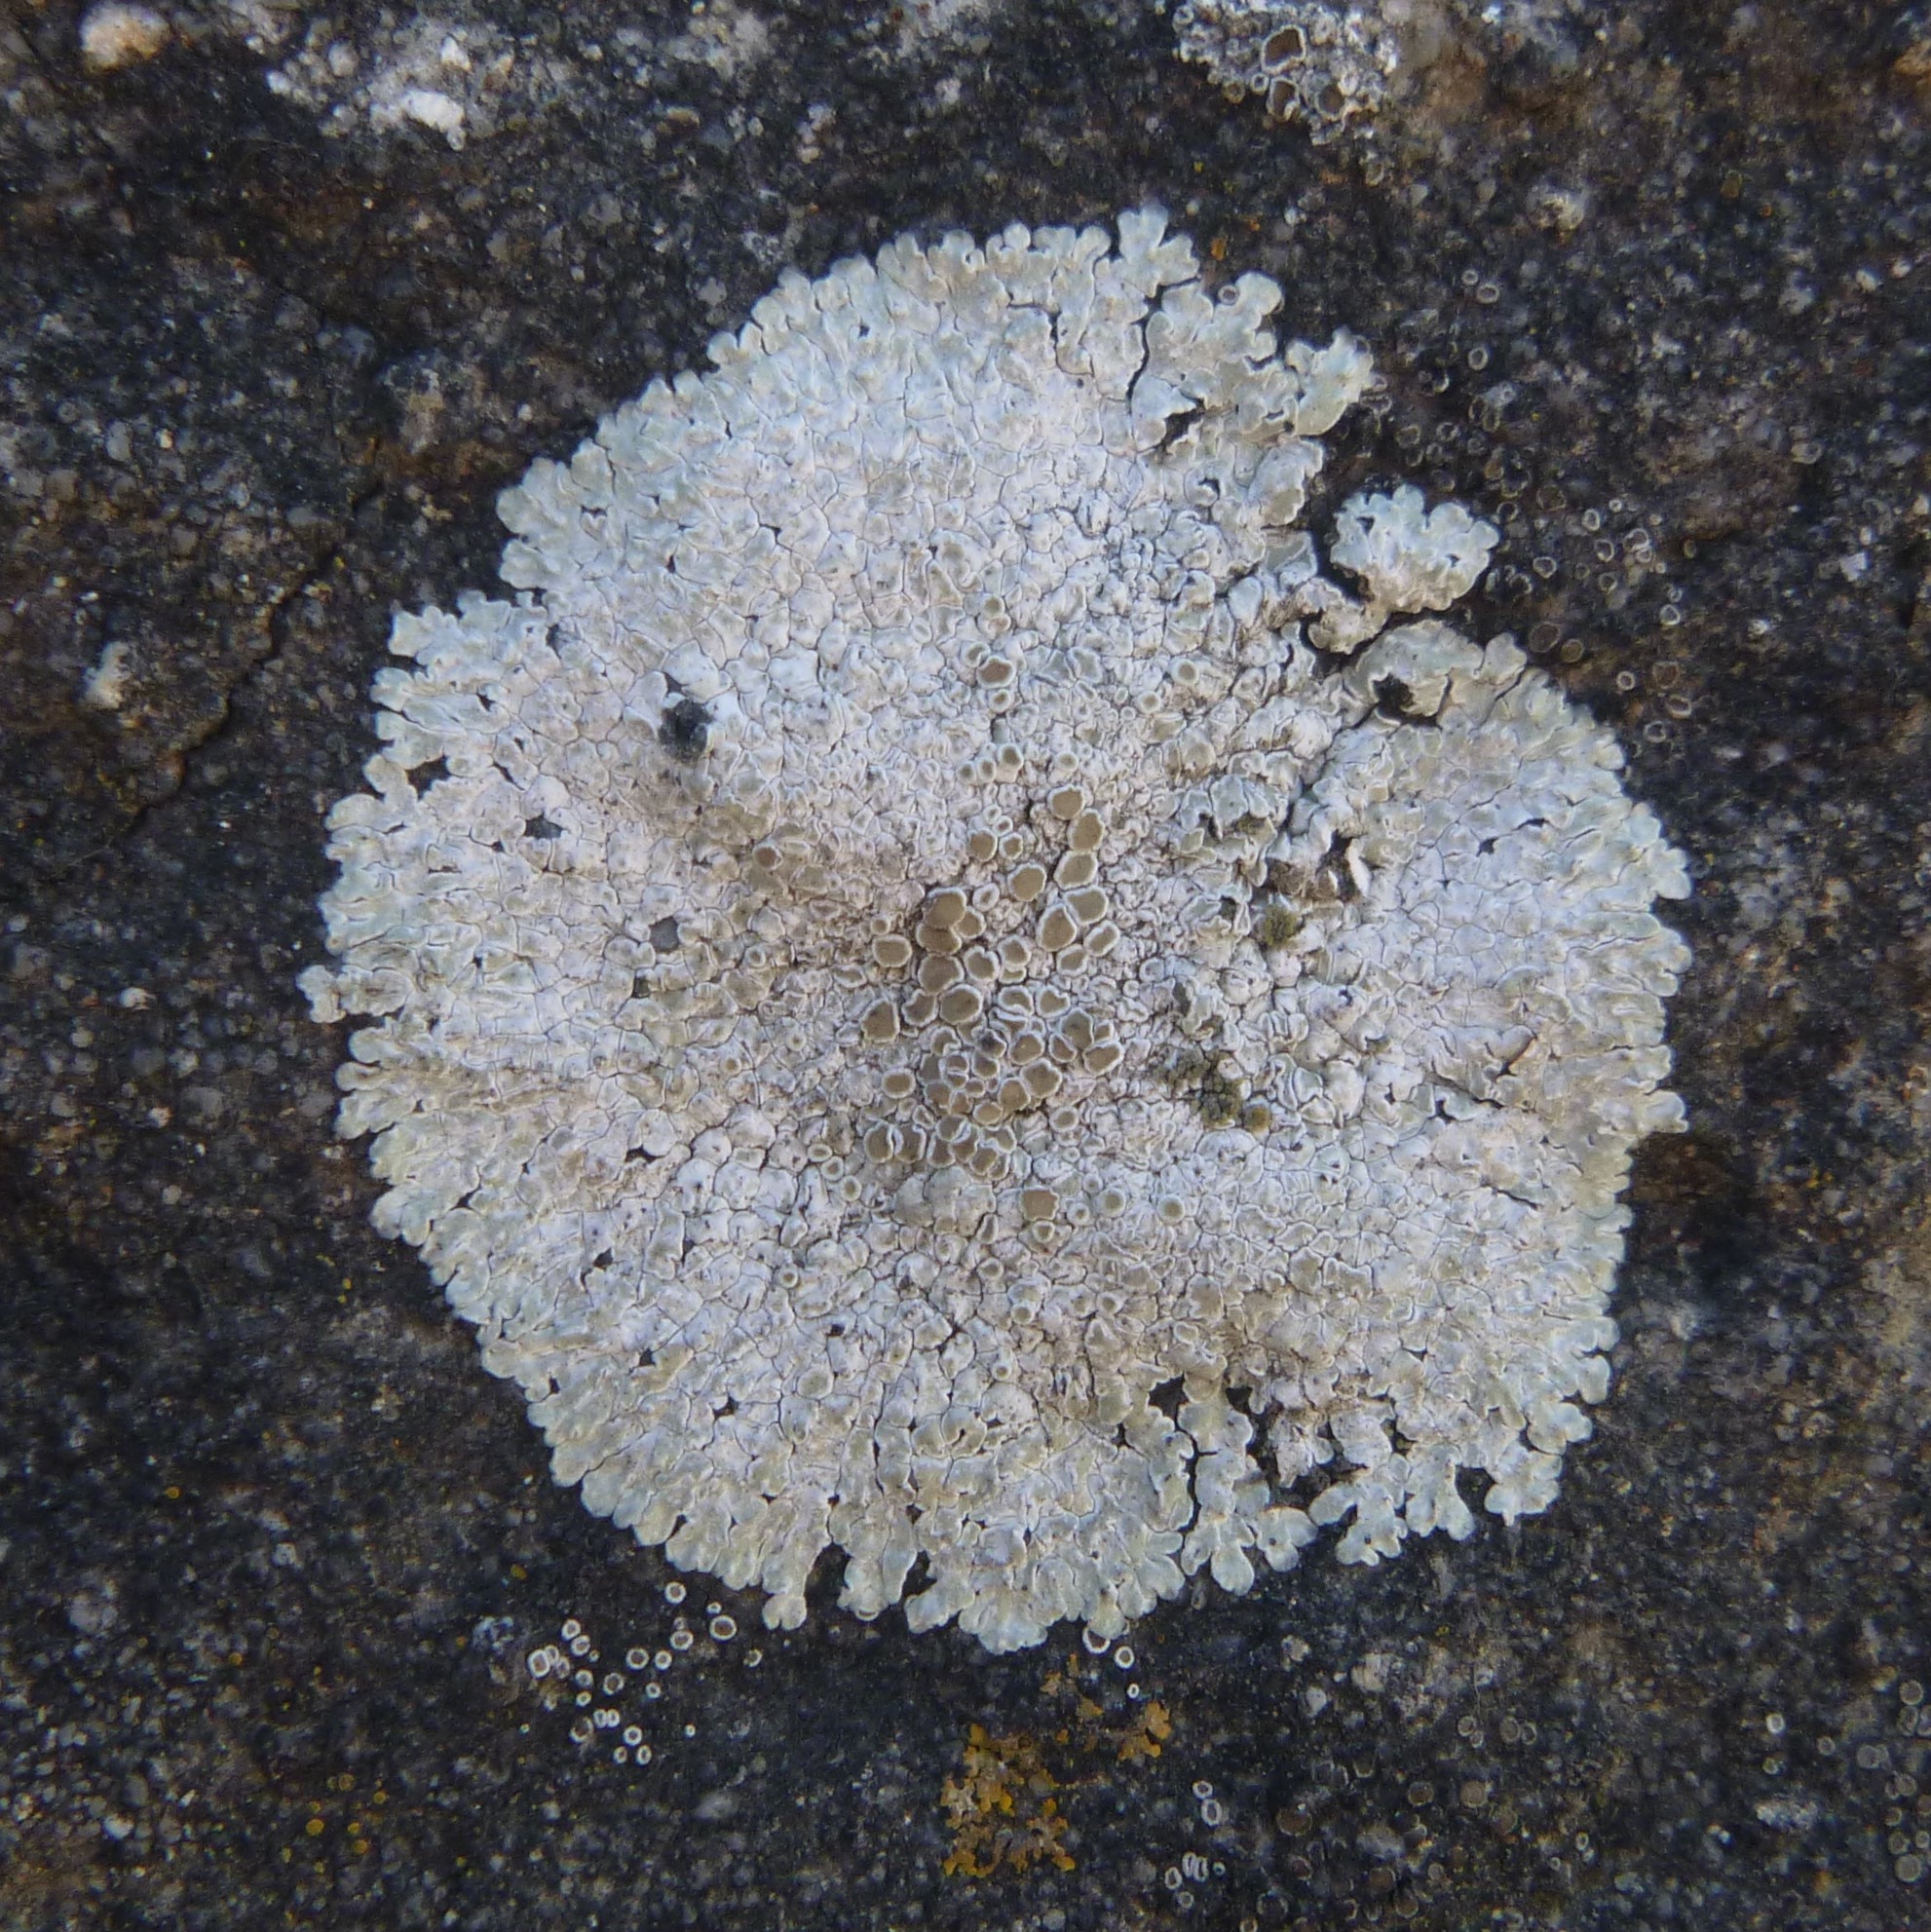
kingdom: Fungi
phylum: Ascomycota
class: Lecanoromycetes
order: Lecanorales
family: Lecanoraceae
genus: Protoparmeliopsis
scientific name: Protoparmeliopsis muralis
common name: Stonewall rim lichen
